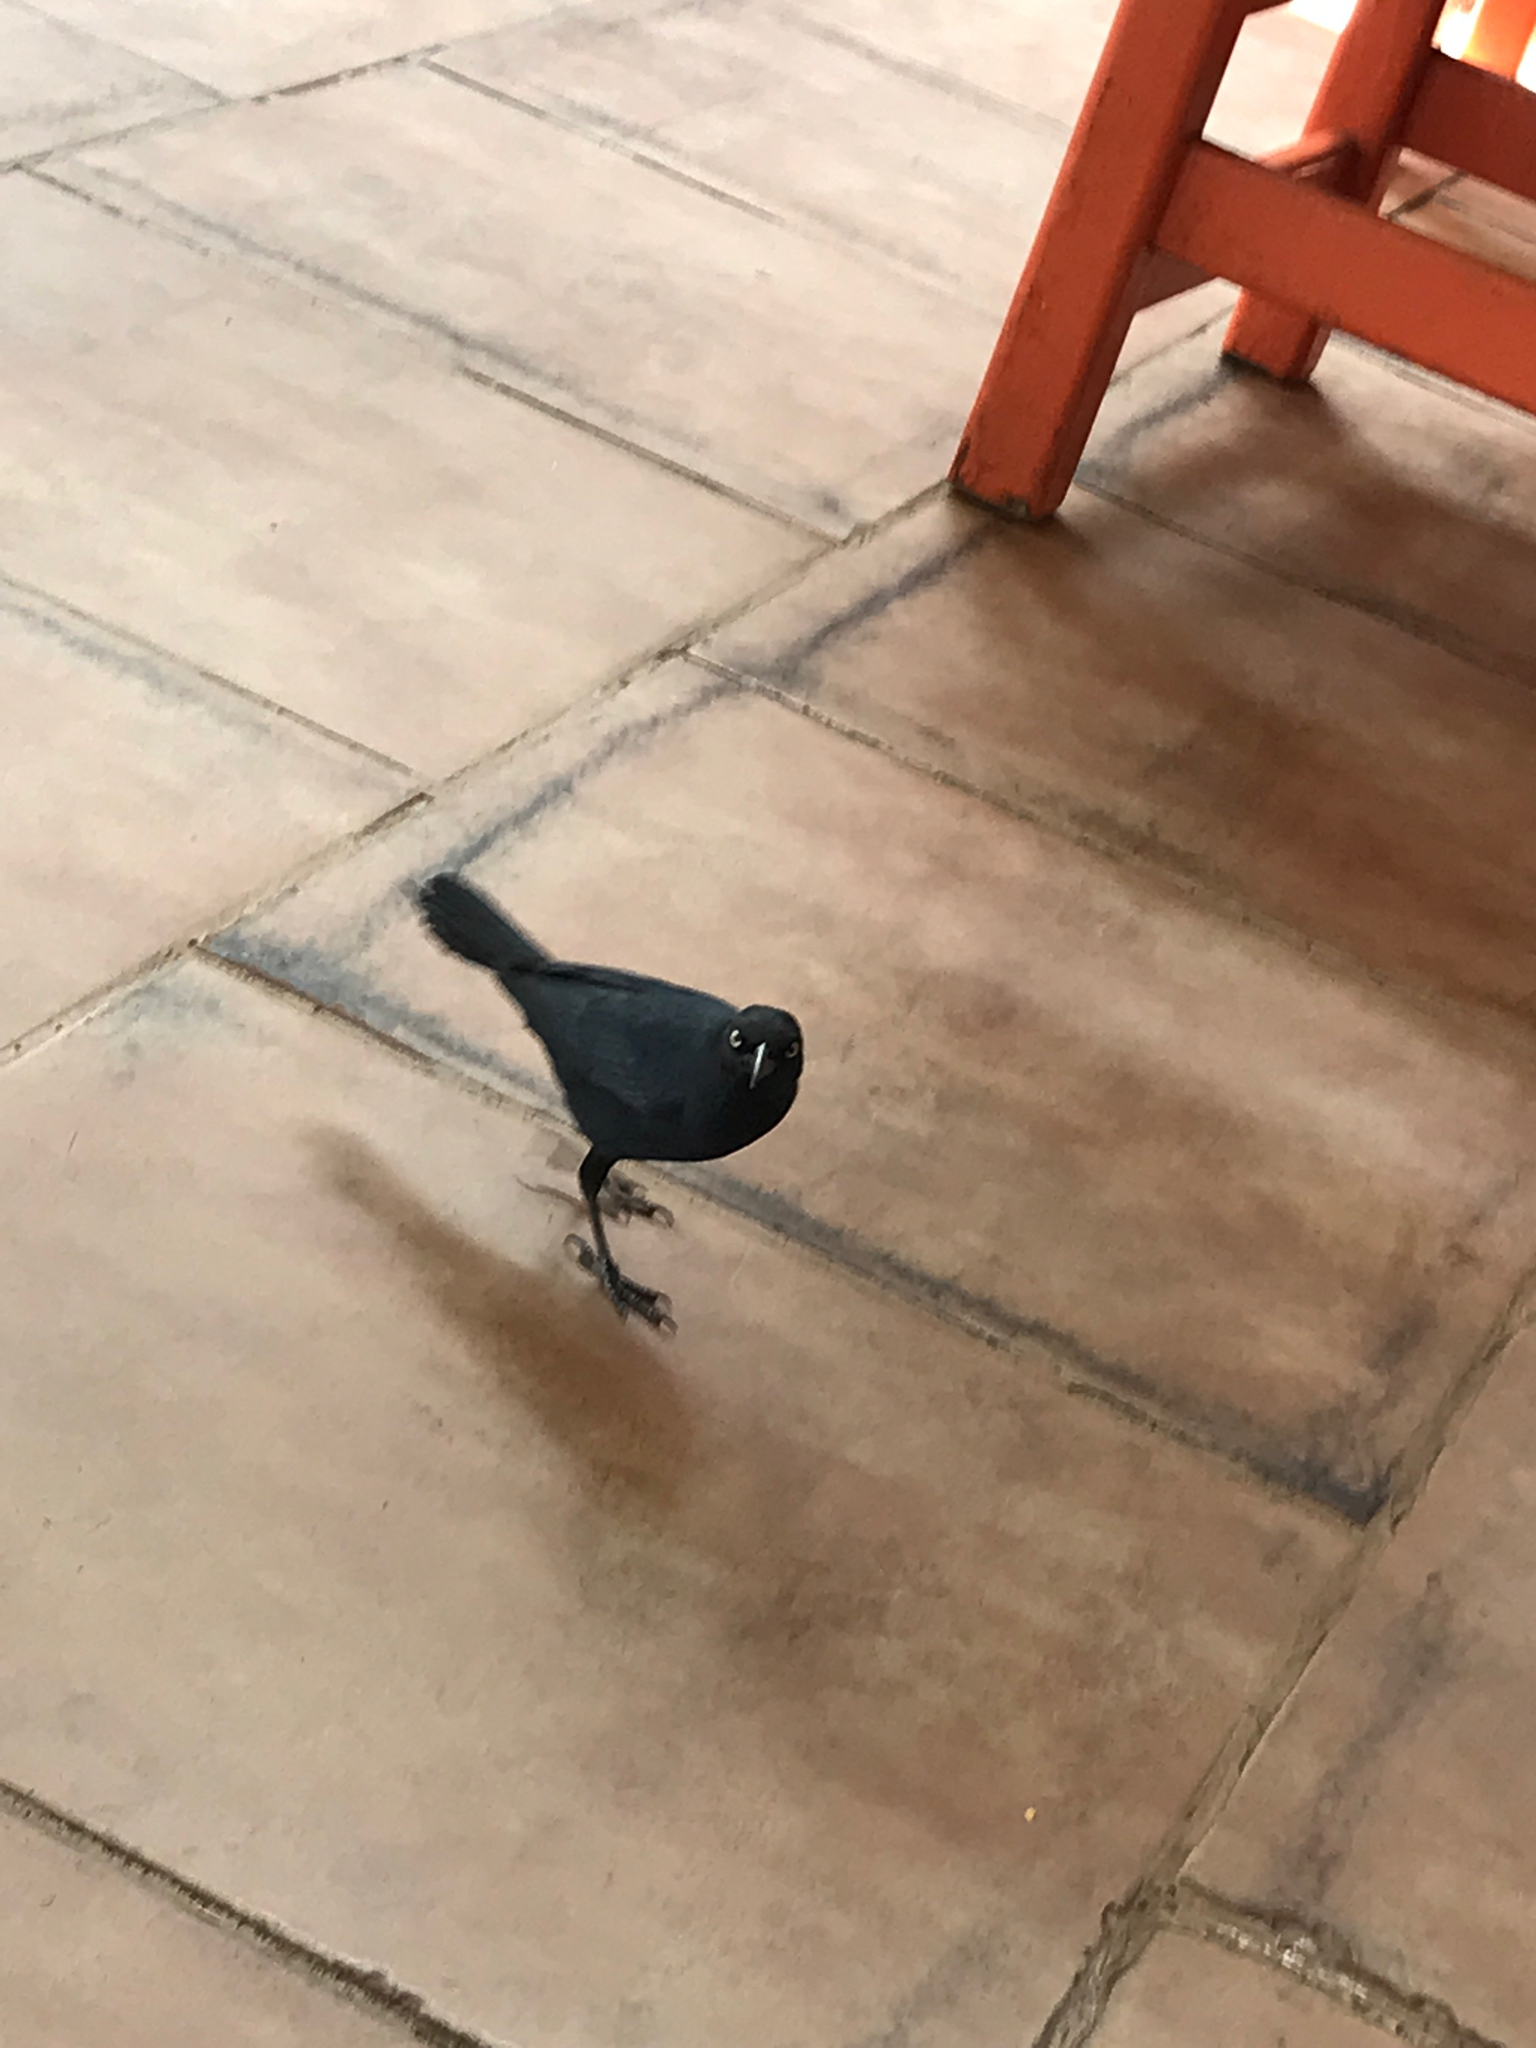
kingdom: Animalia
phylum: Chordata
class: Aves
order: Passeriformes
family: Icteridae
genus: Quiscalus
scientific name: Quiscalus niger
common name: Greater antillean grackle
